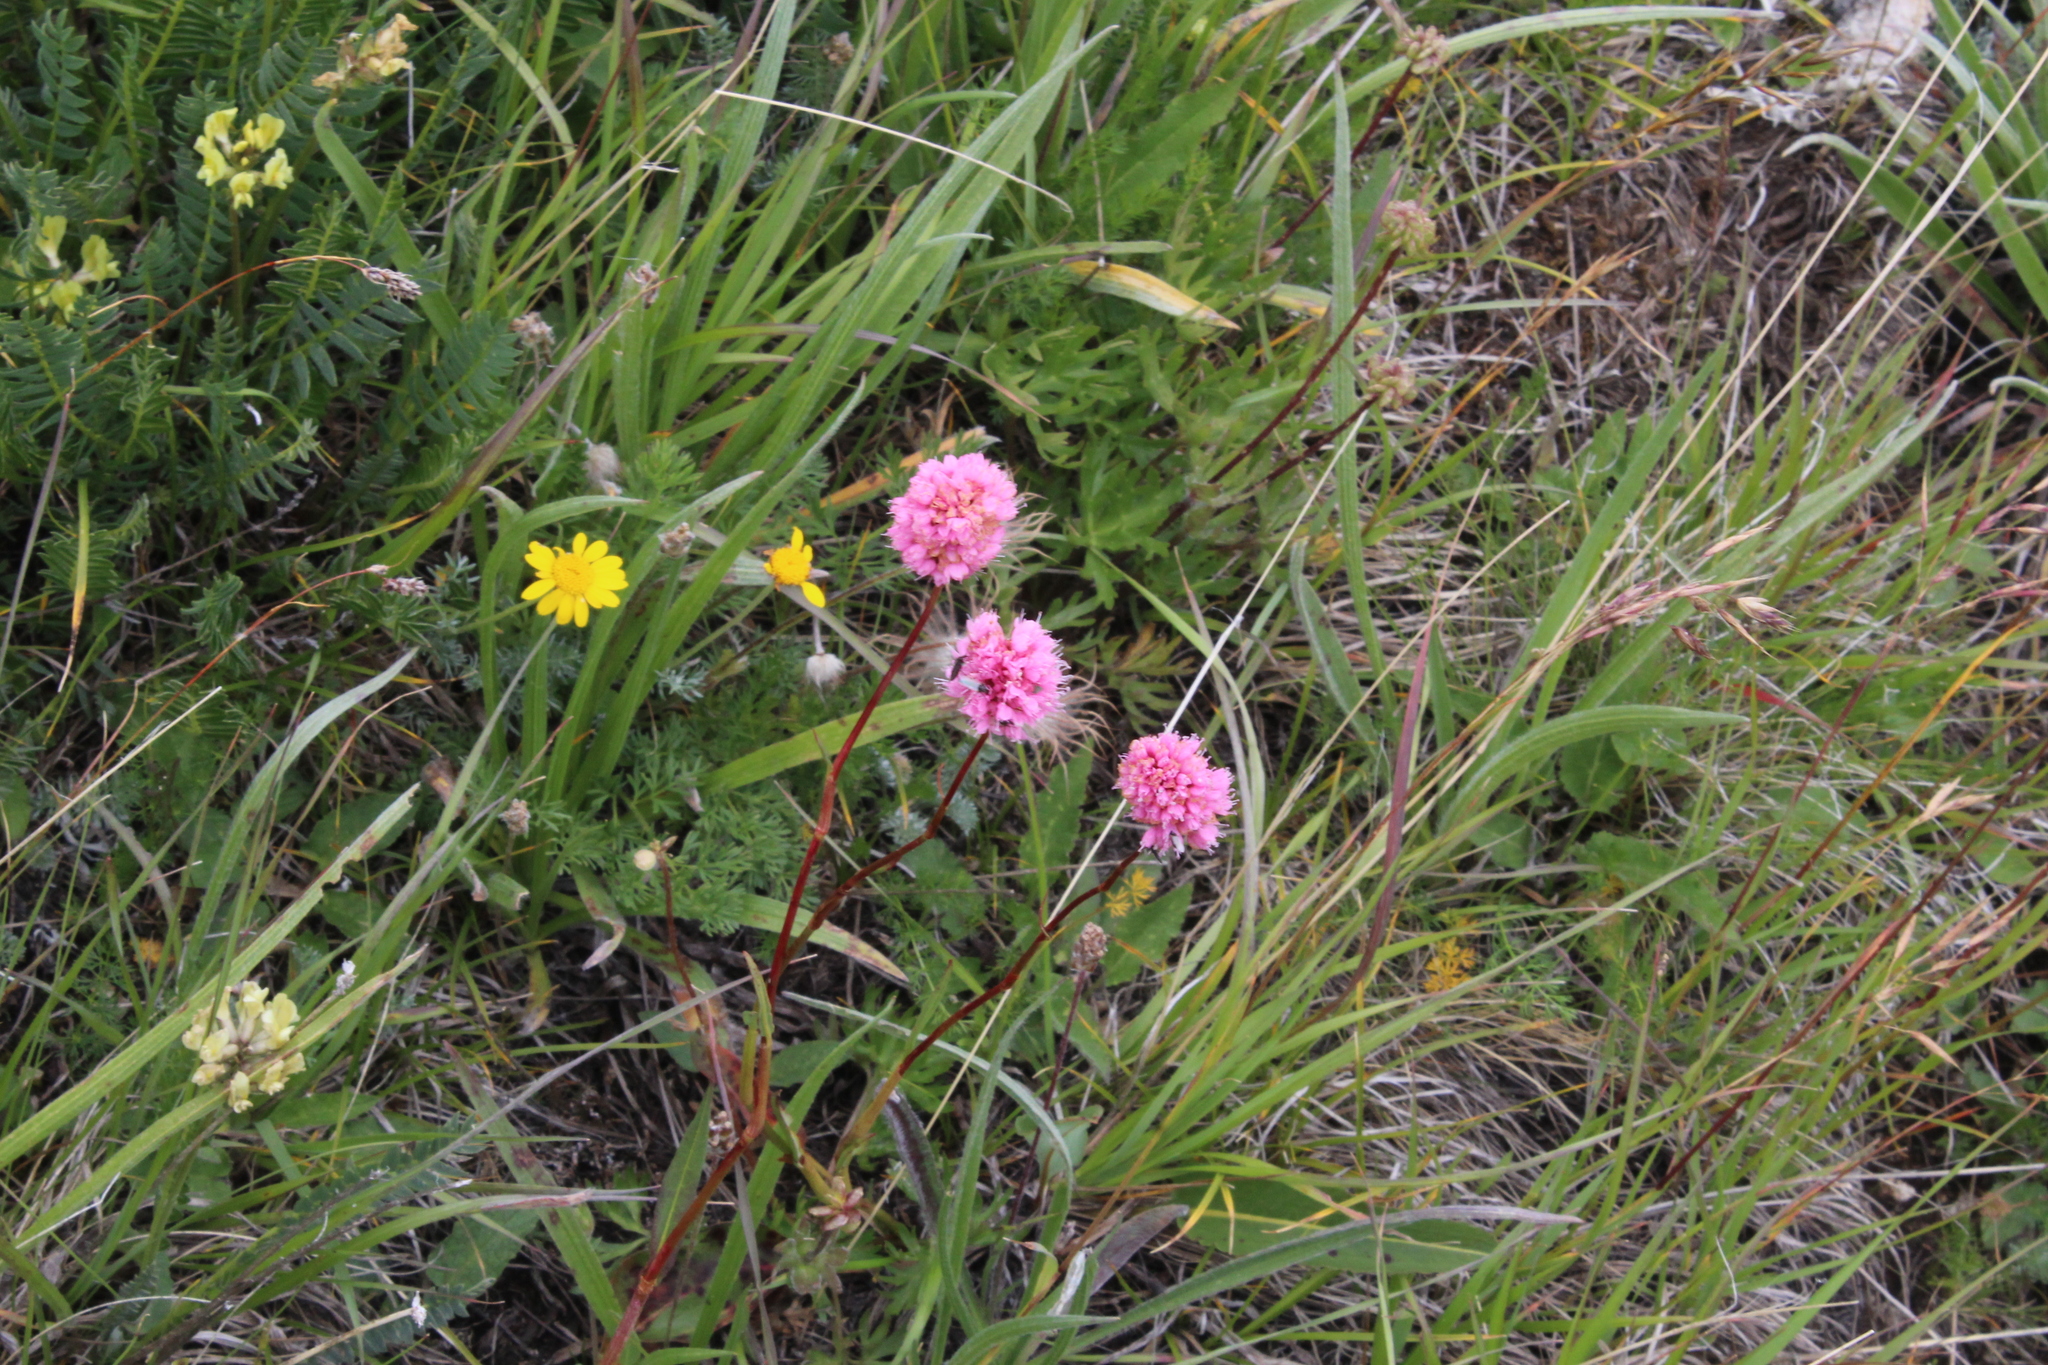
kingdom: Plantae
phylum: Tracheophyta
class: Magnoliopsida
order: Caryophyllales
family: Polygonaceae
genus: Bistorta
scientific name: Bistorta carnea
